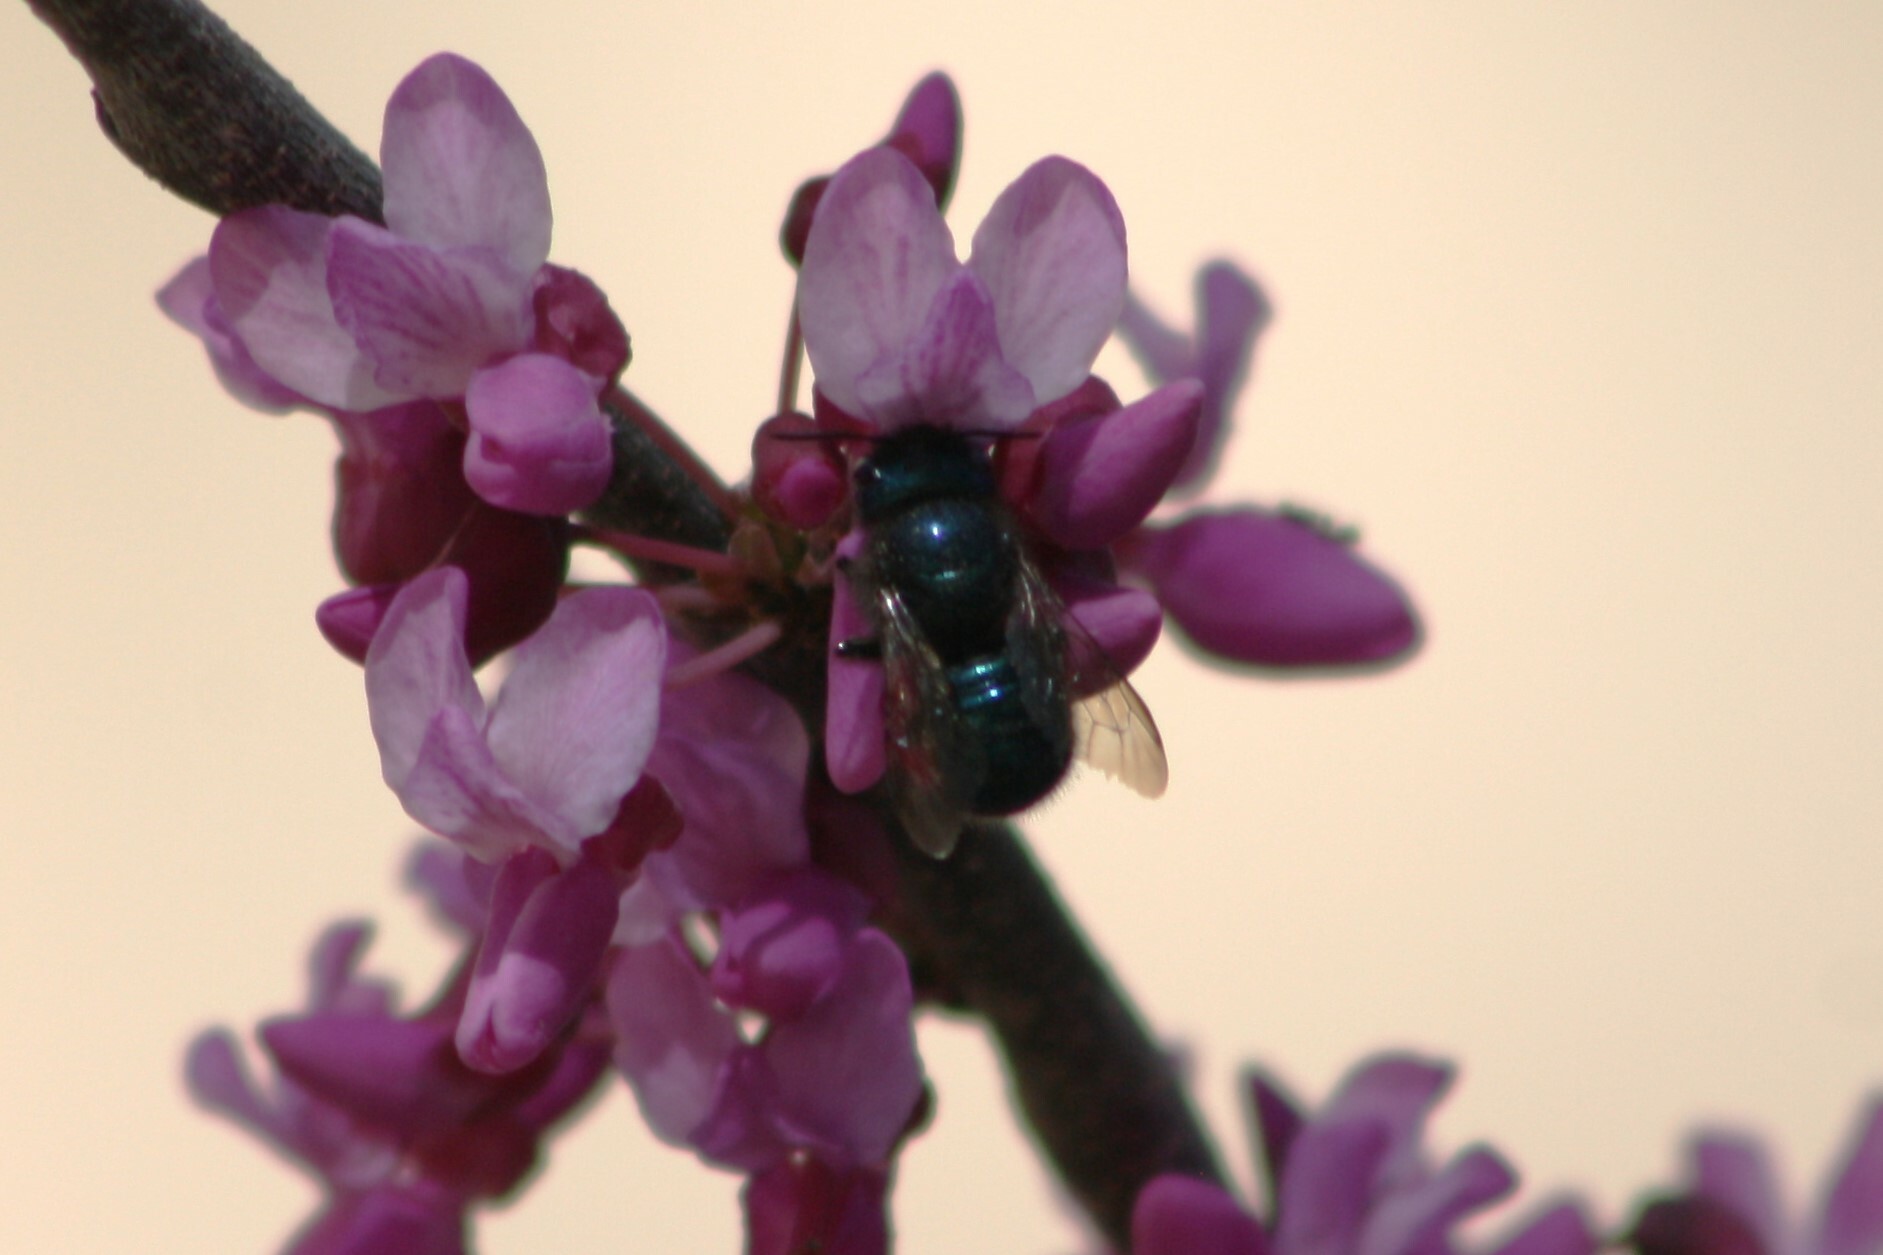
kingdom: Animalia
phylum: Arthropoda
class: Insecta
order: Hymenoptera
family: Megachilidae
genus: Osmia
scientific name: Osmia ribifloris
